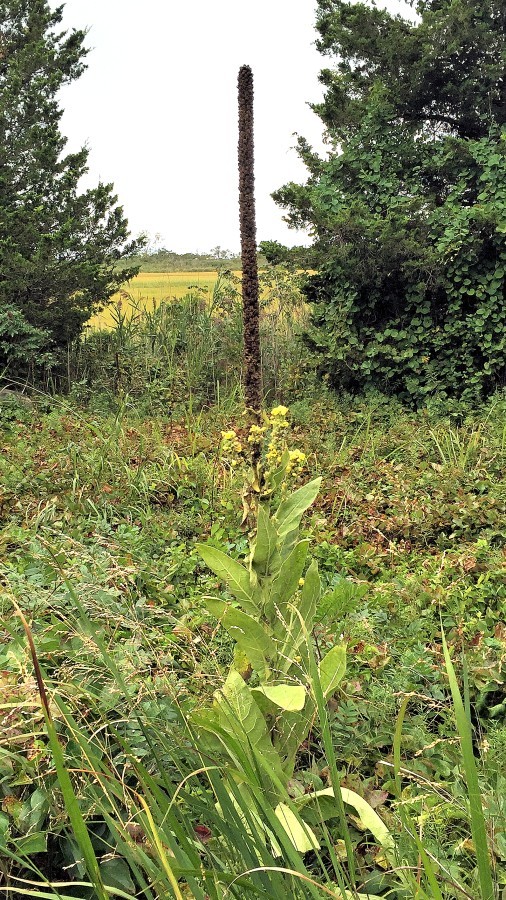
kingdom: Plantae
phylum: Tracheophyta
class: Magnoliopsida
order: Lamiales
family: Scrophulariaceae
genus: Verbascum
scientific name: Verbascum thapsus
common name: Common mullein
